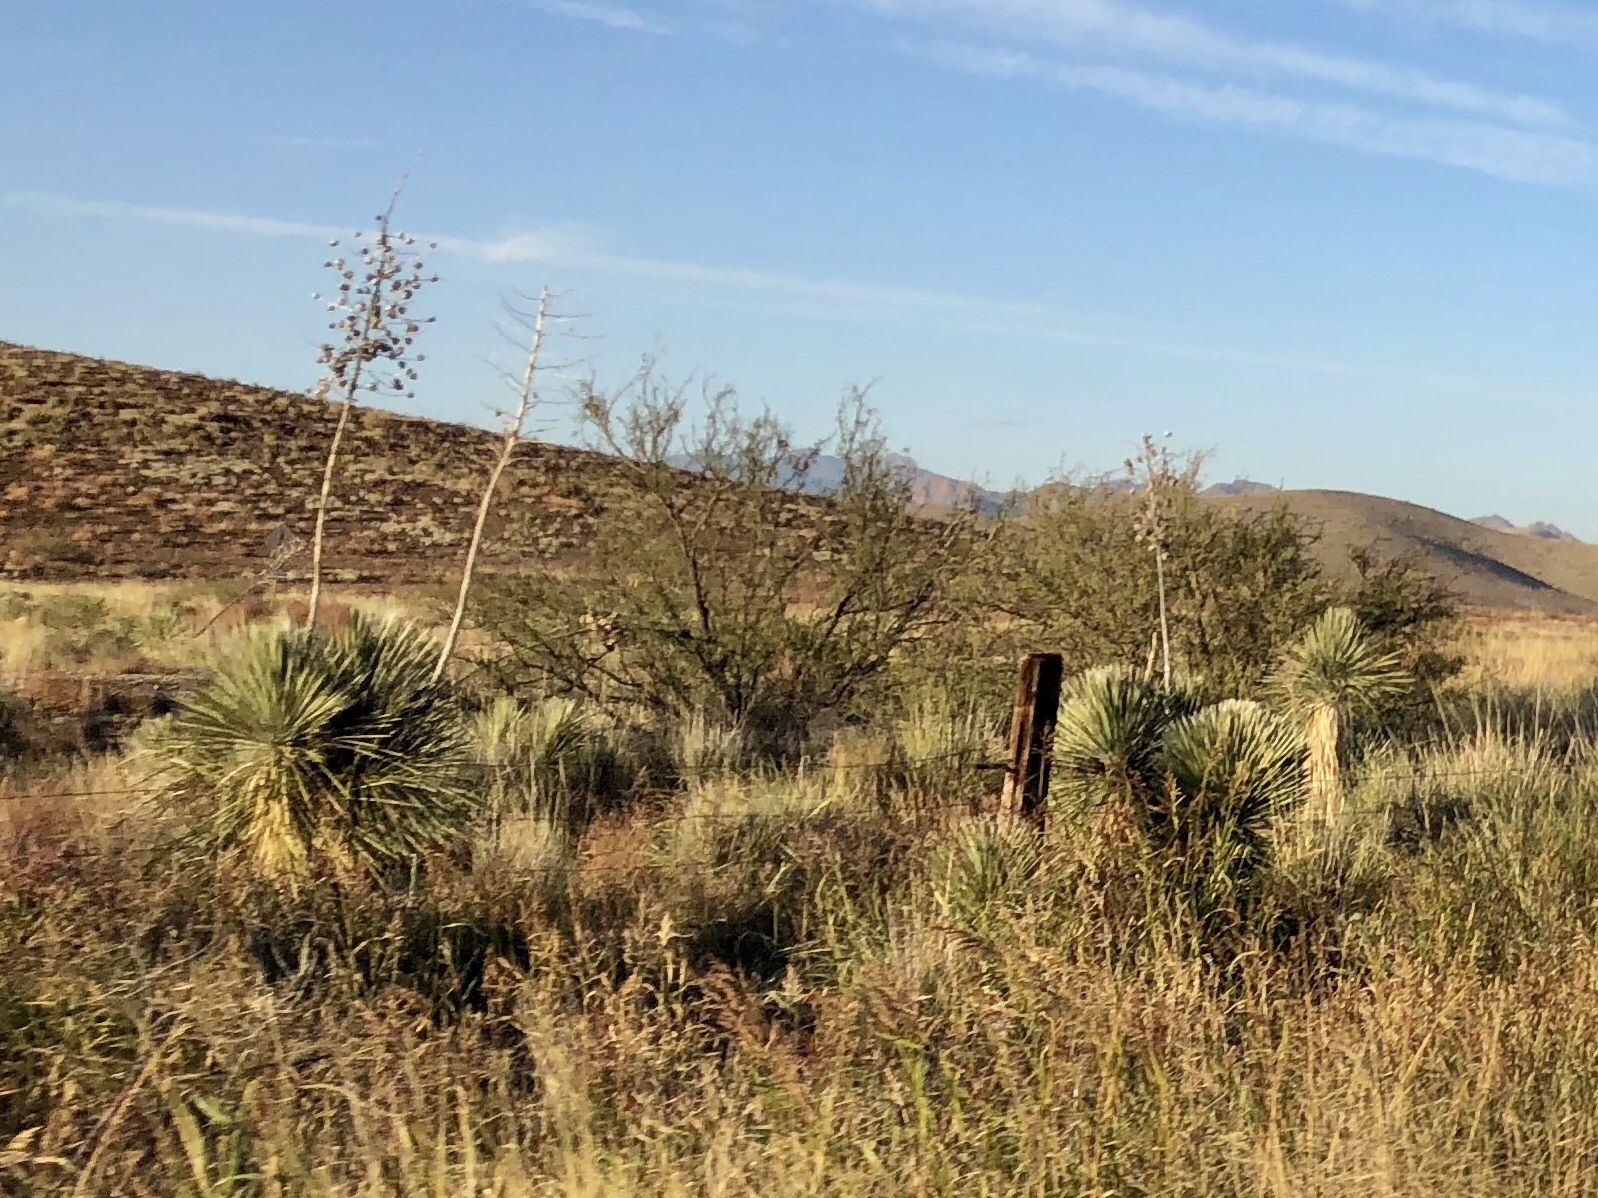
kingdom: Plantae
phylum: Tracheophyta
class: Liliopsida
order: Asparagales
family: Asparagaceae
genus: Yucca
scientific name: Yucca elata
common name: Palmella
